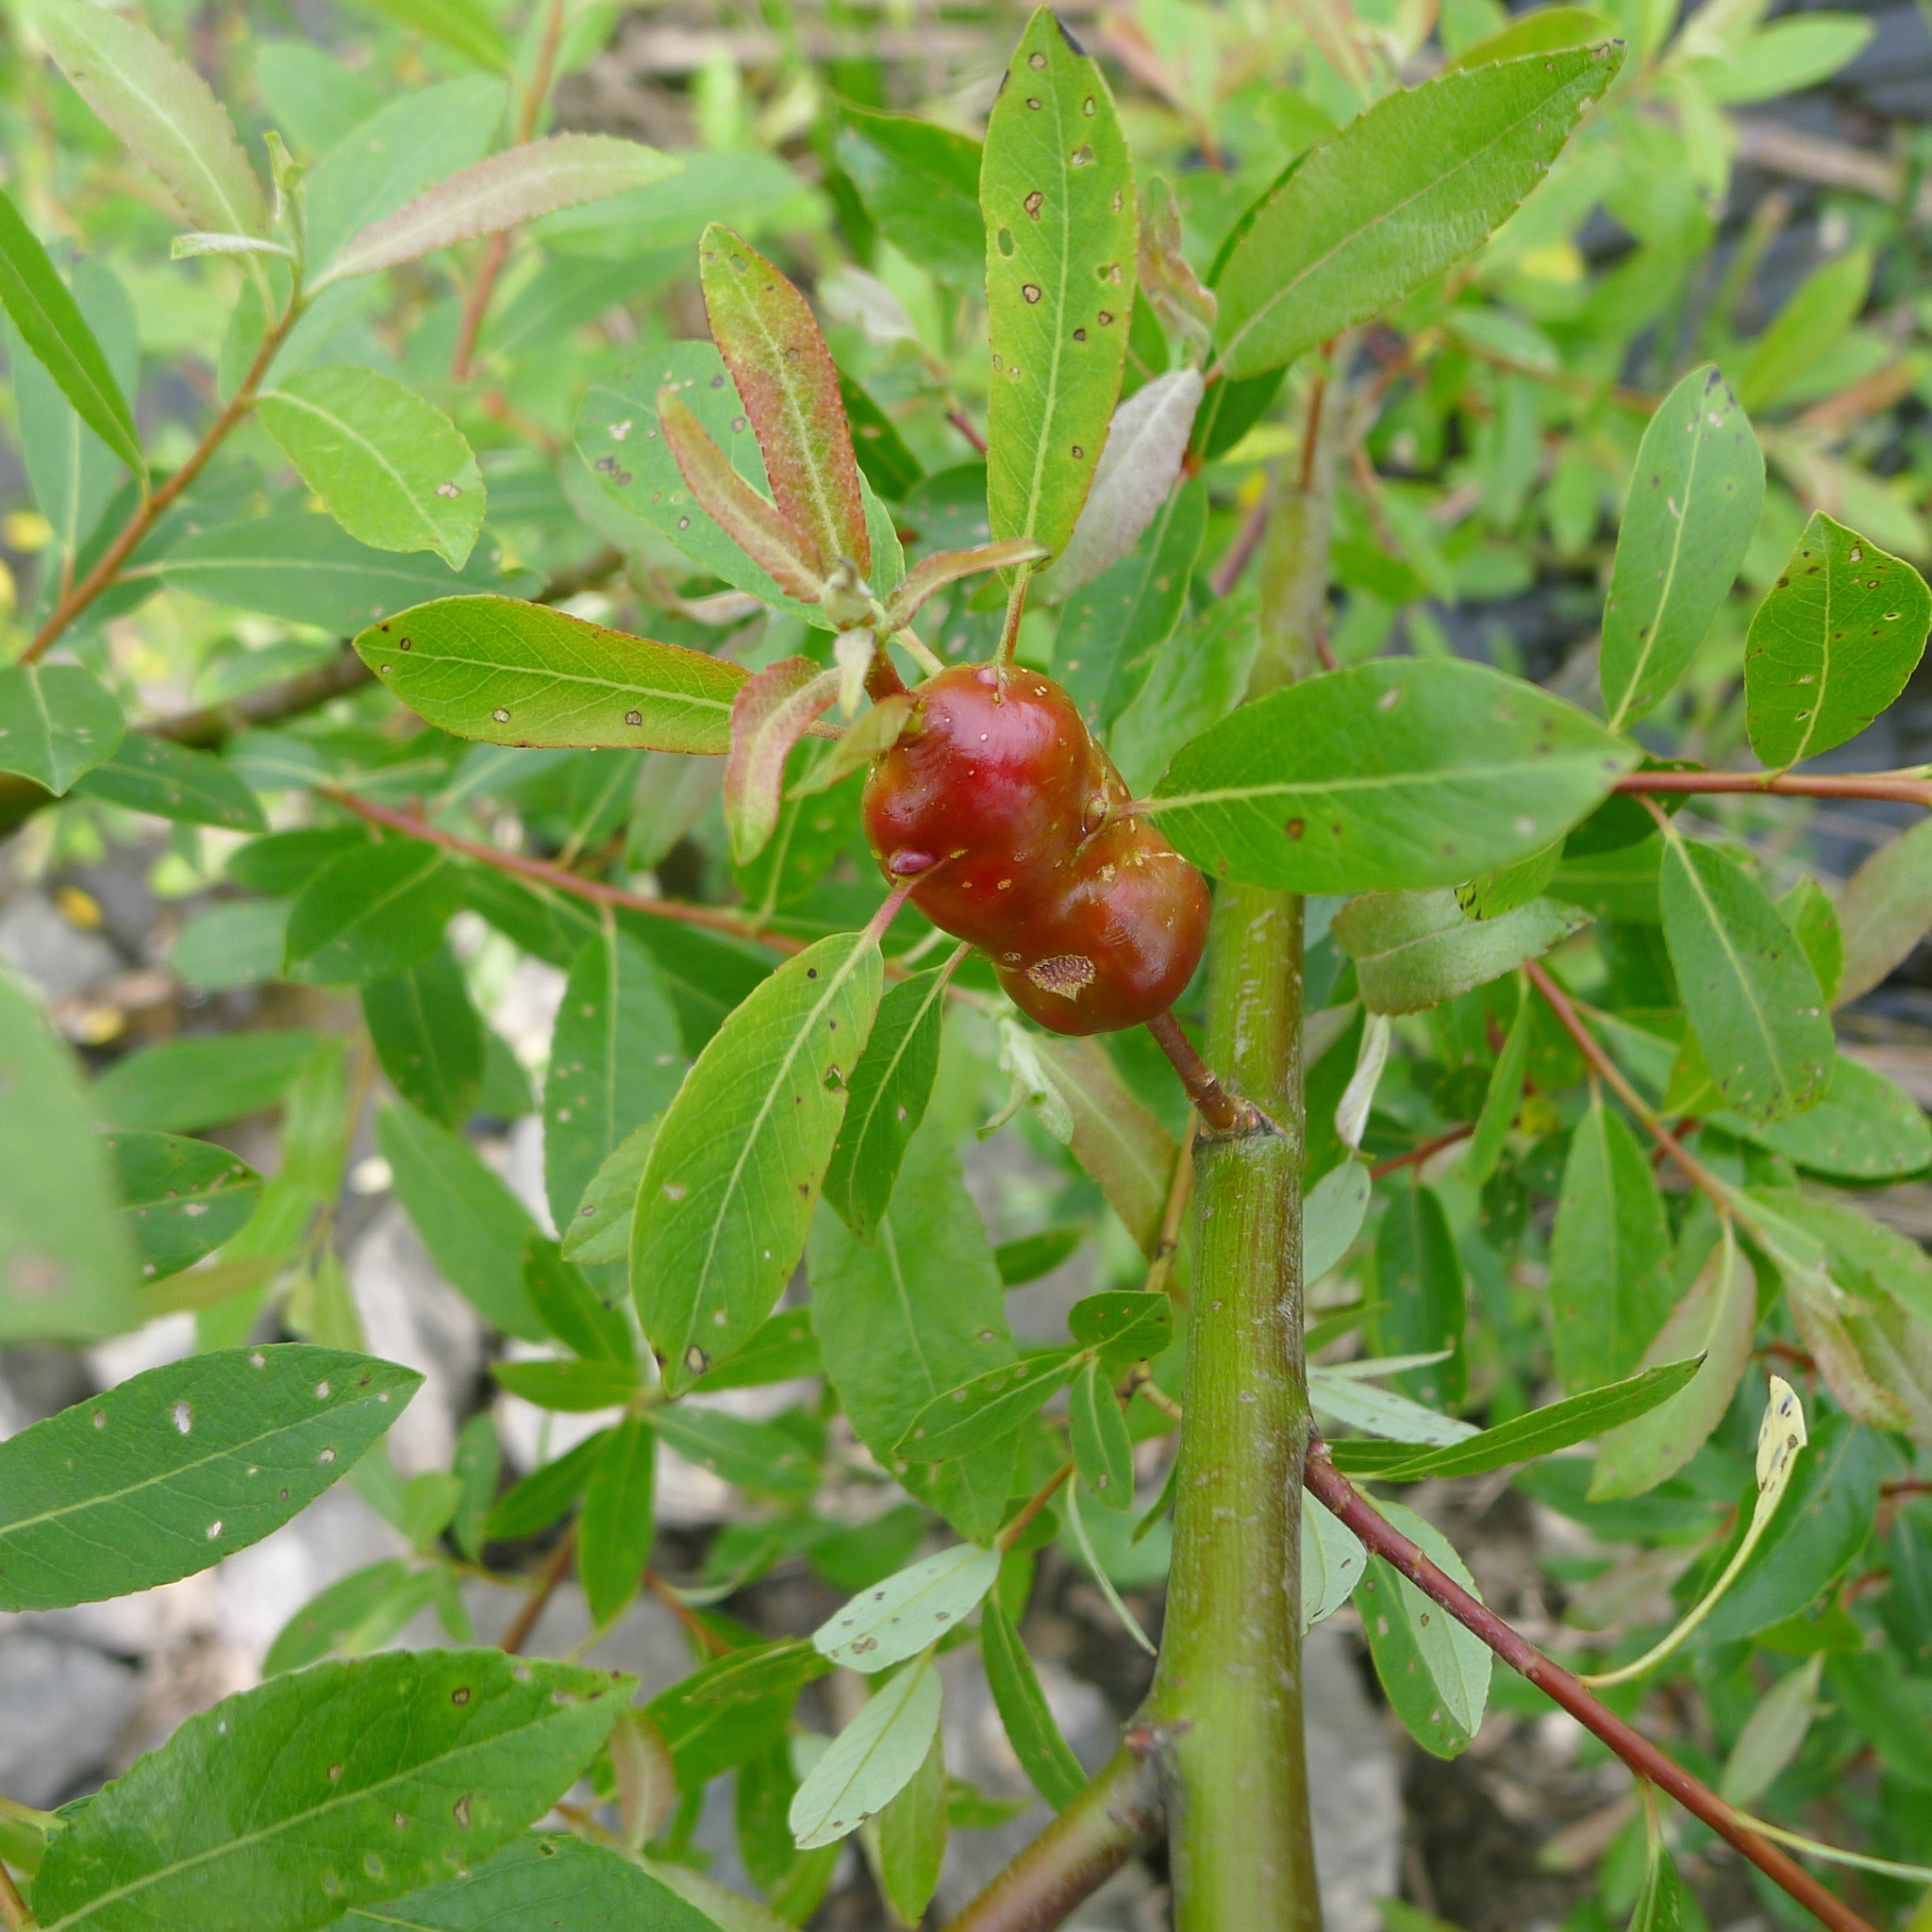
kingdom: Animalia
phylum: Arthropoda
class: Insecta
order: Diptera
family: Cecidomyiidae
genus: Rabdophaga
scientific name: Rabdophaga salicisbatatas
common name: Potato gall midge
